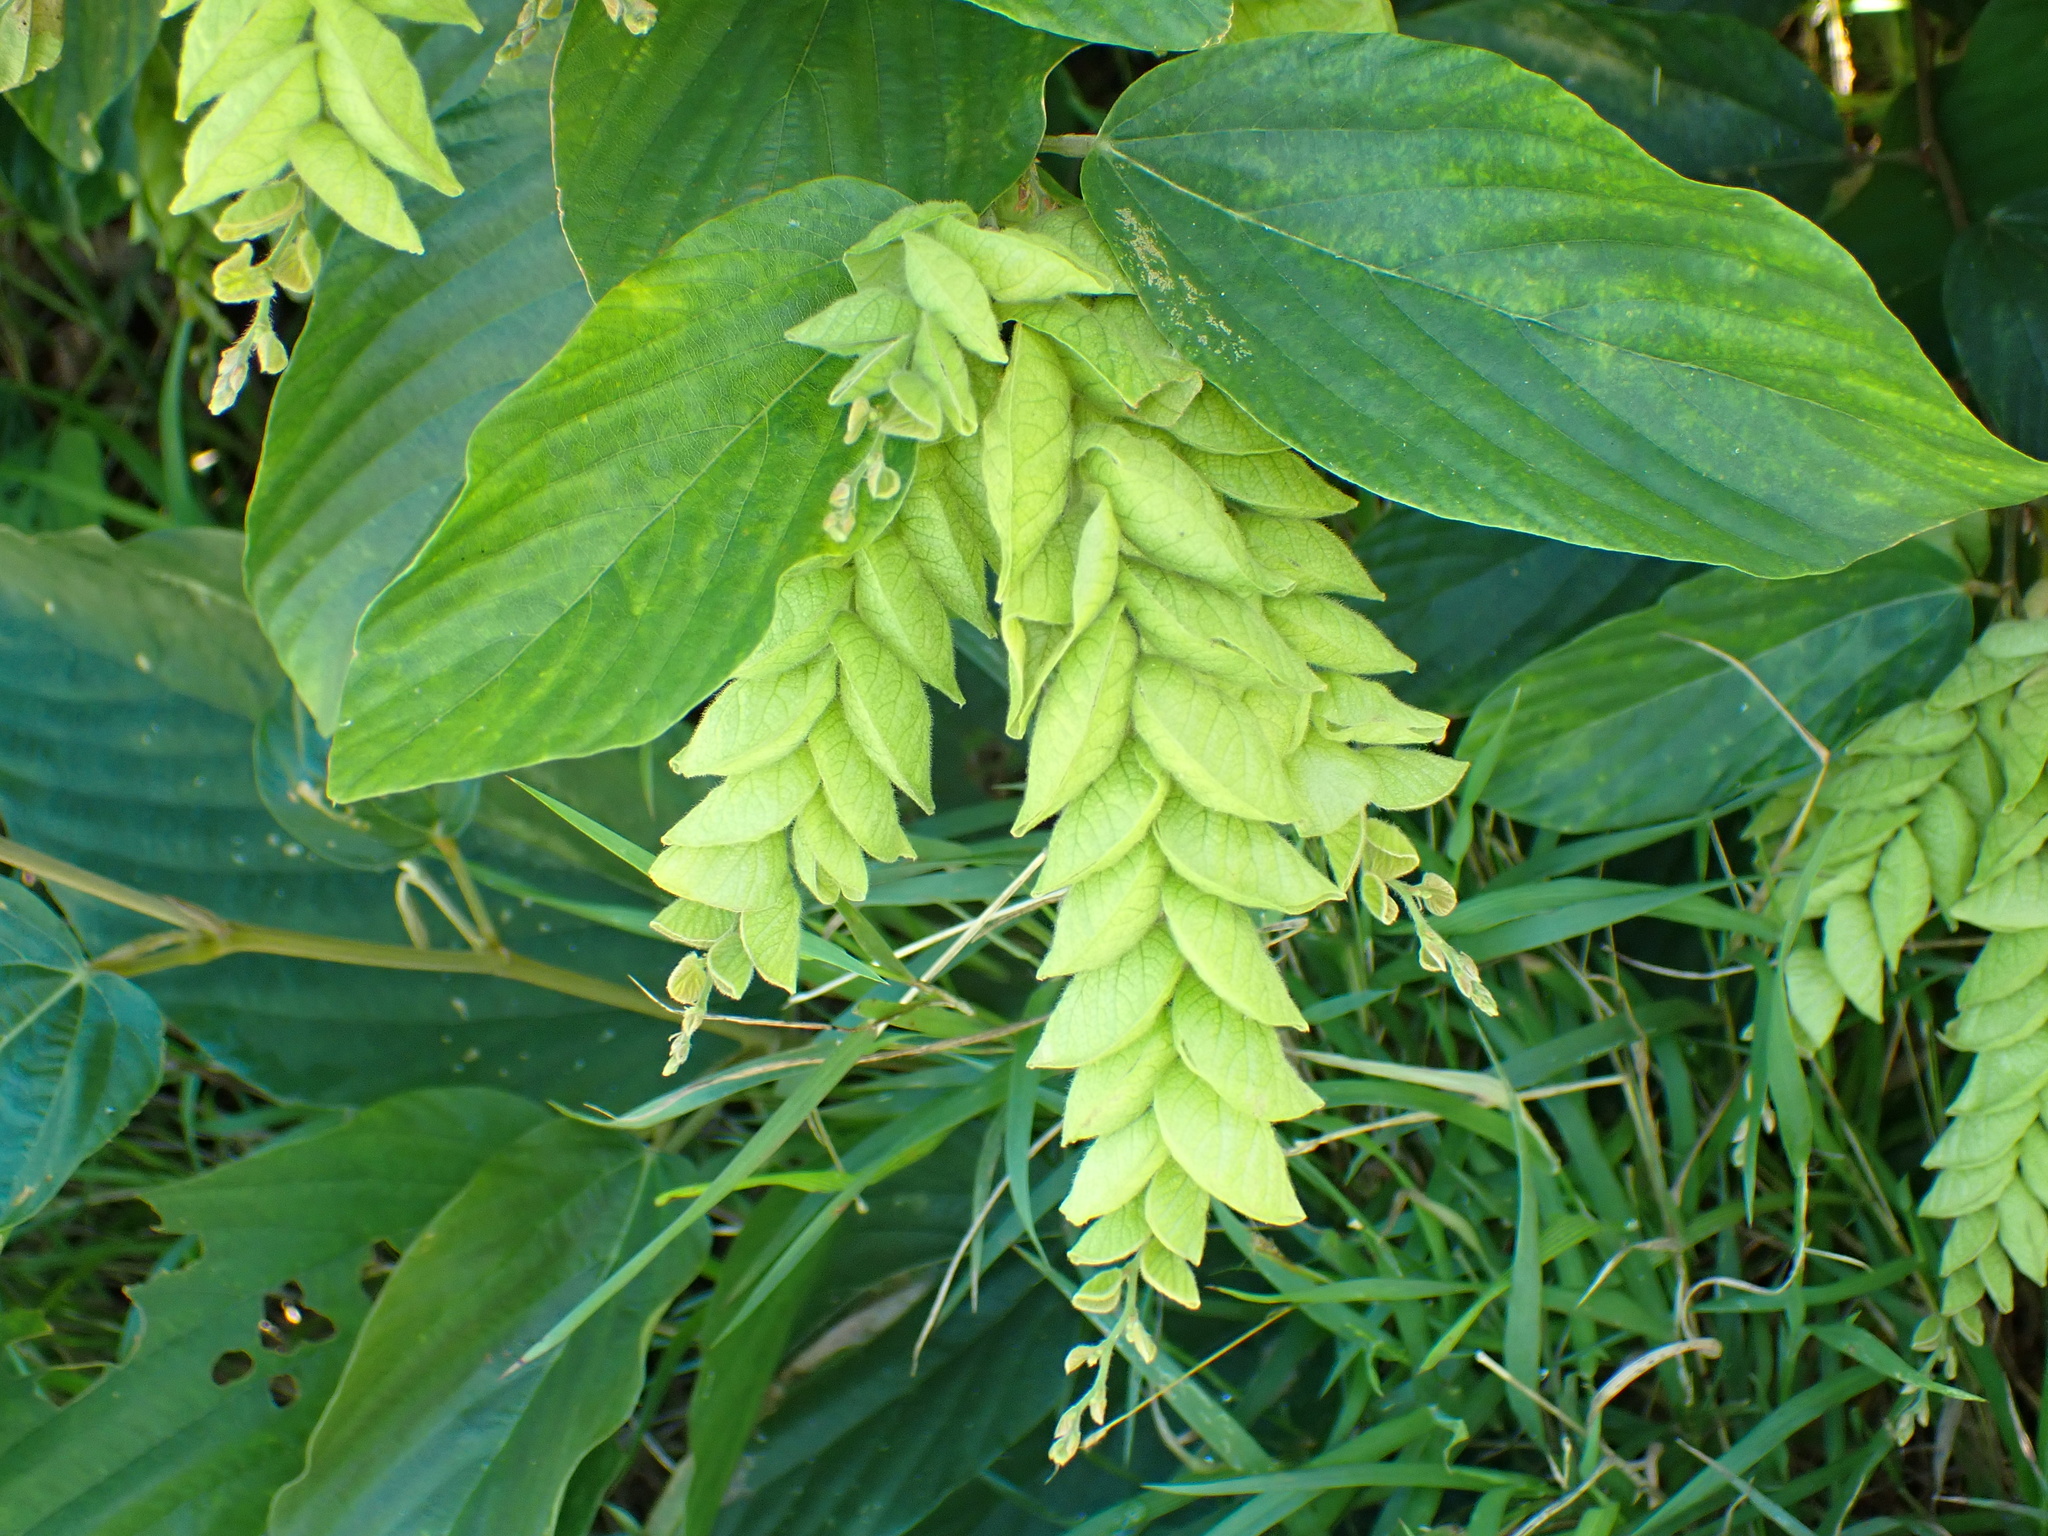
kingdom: Plantae
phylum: Tracheophyta
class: Magnoliopsida
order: Fabales
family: Fabaceae
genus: Flemingia
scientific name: Flemingia strobilifera
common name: Wild hops
